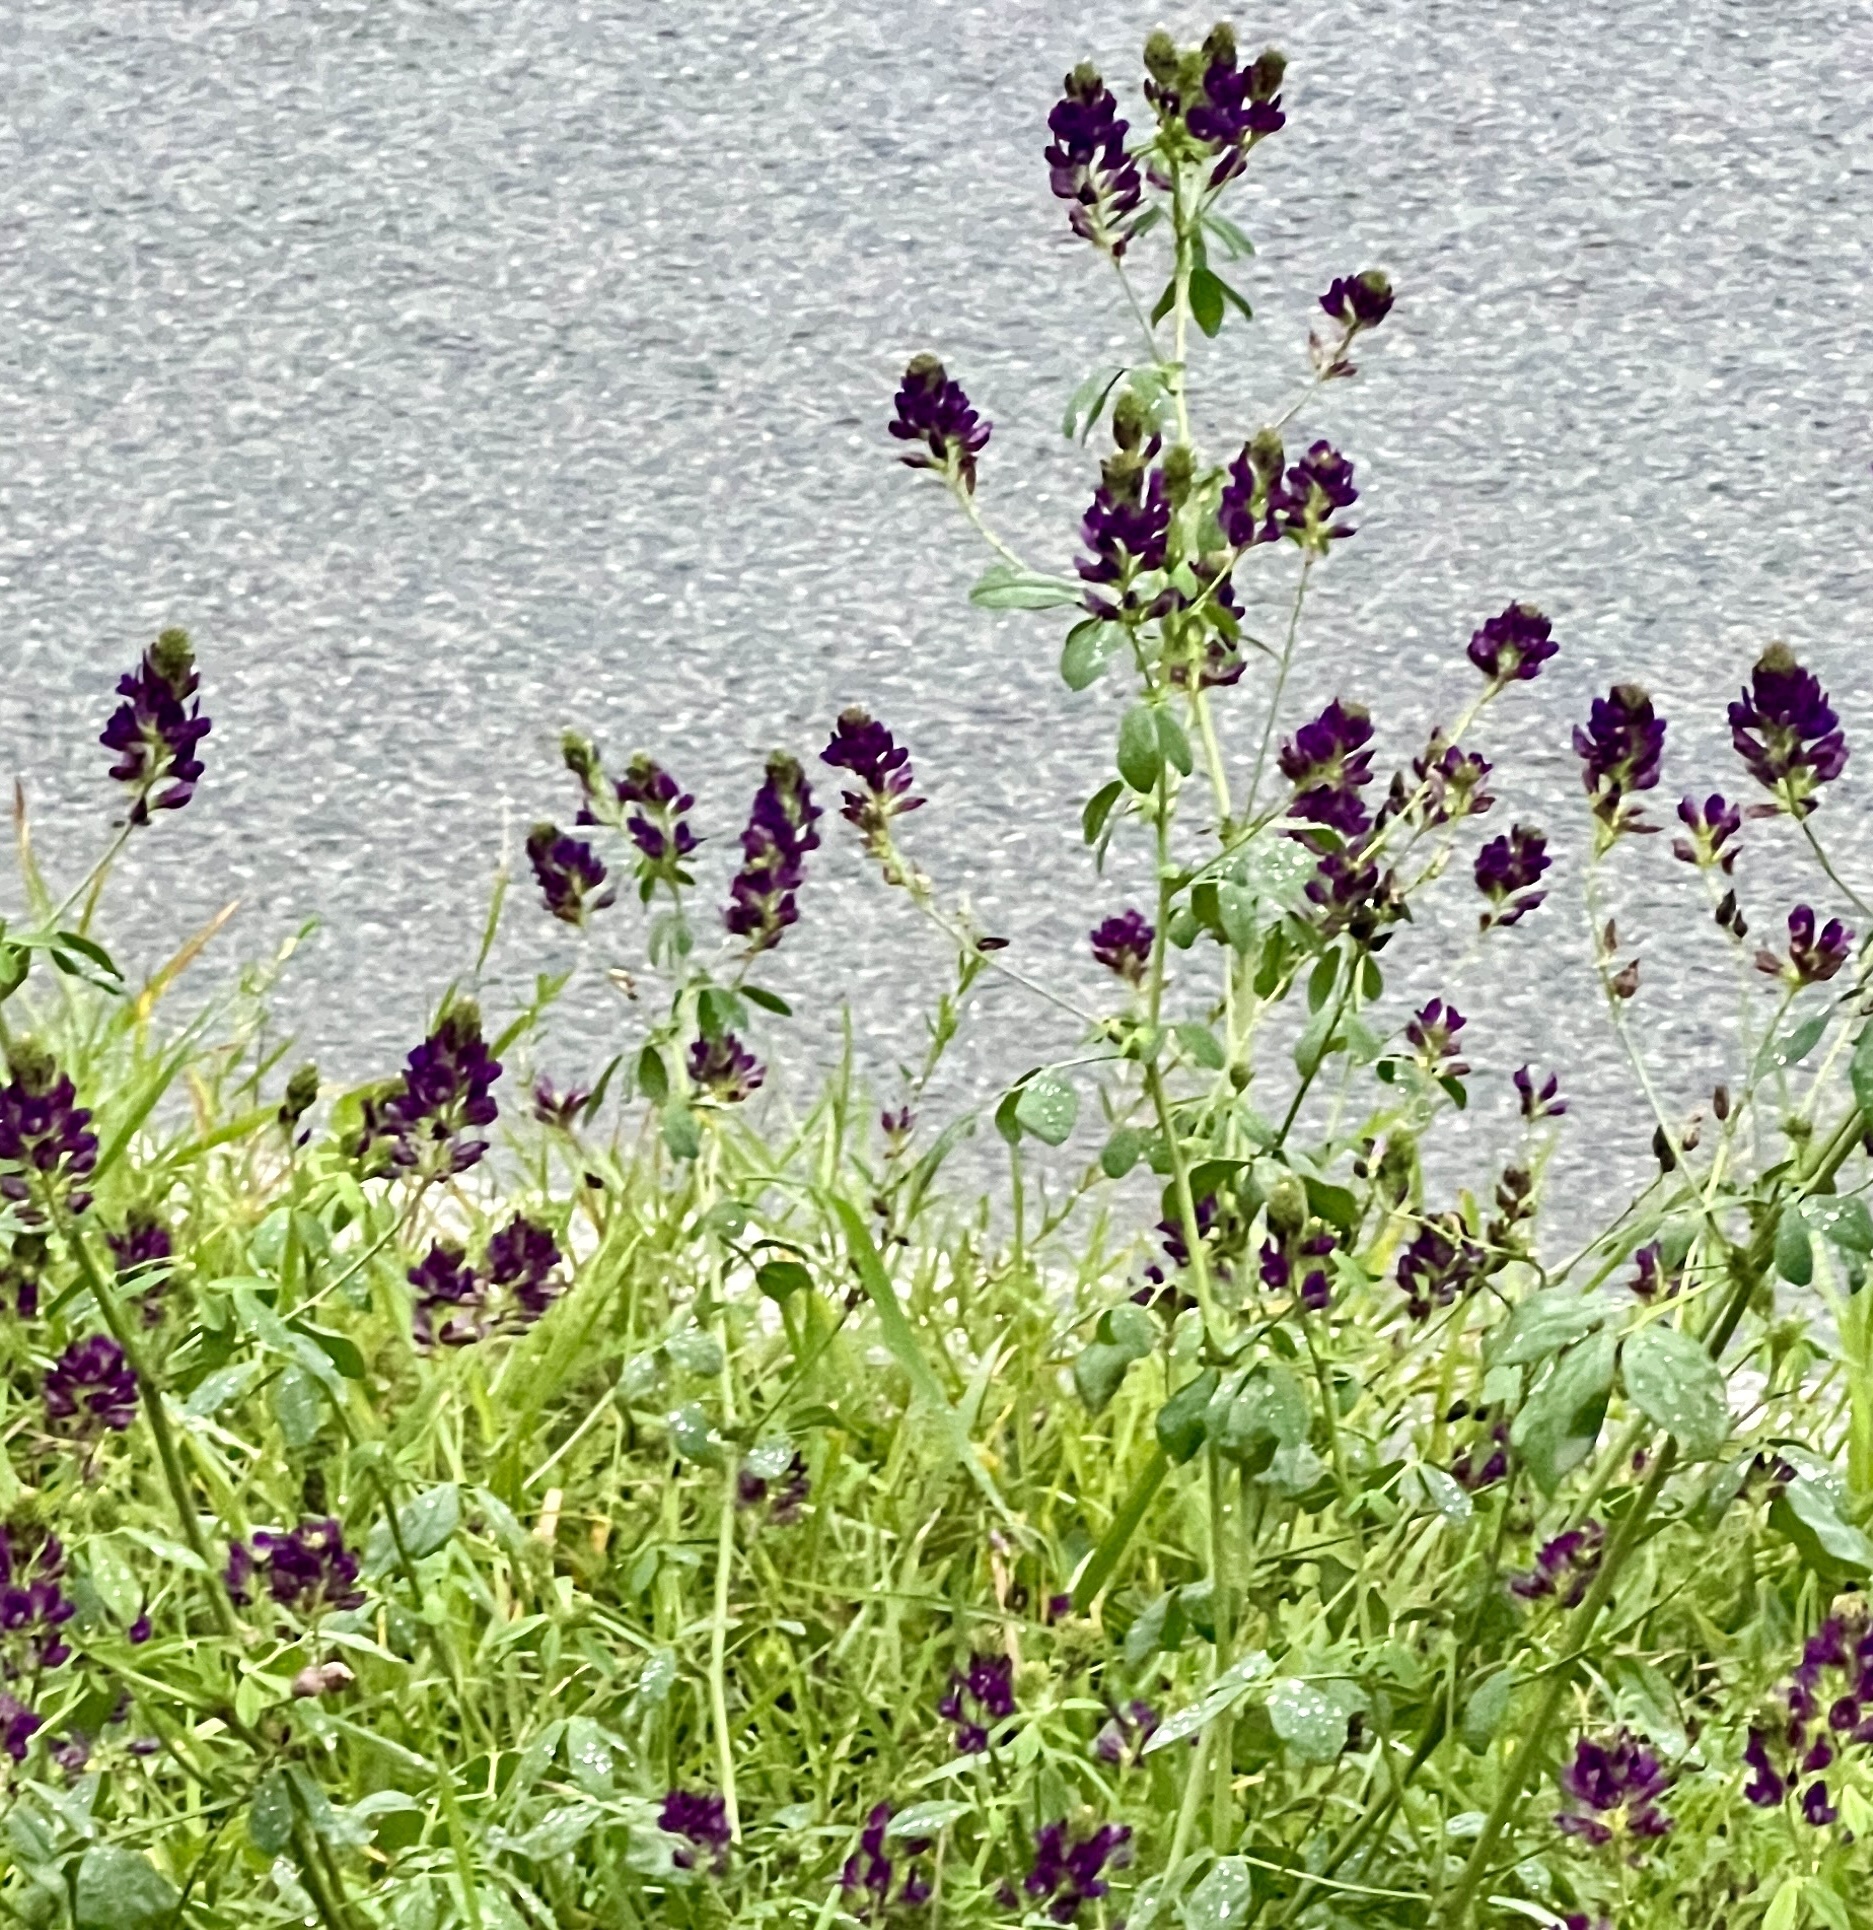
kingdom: Plantae
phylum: Tracheophyta
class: Magnoliopsida
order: Fabales
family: Fabaceae
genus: Medicago
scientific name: Medicago sativa
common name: Alfalfa
